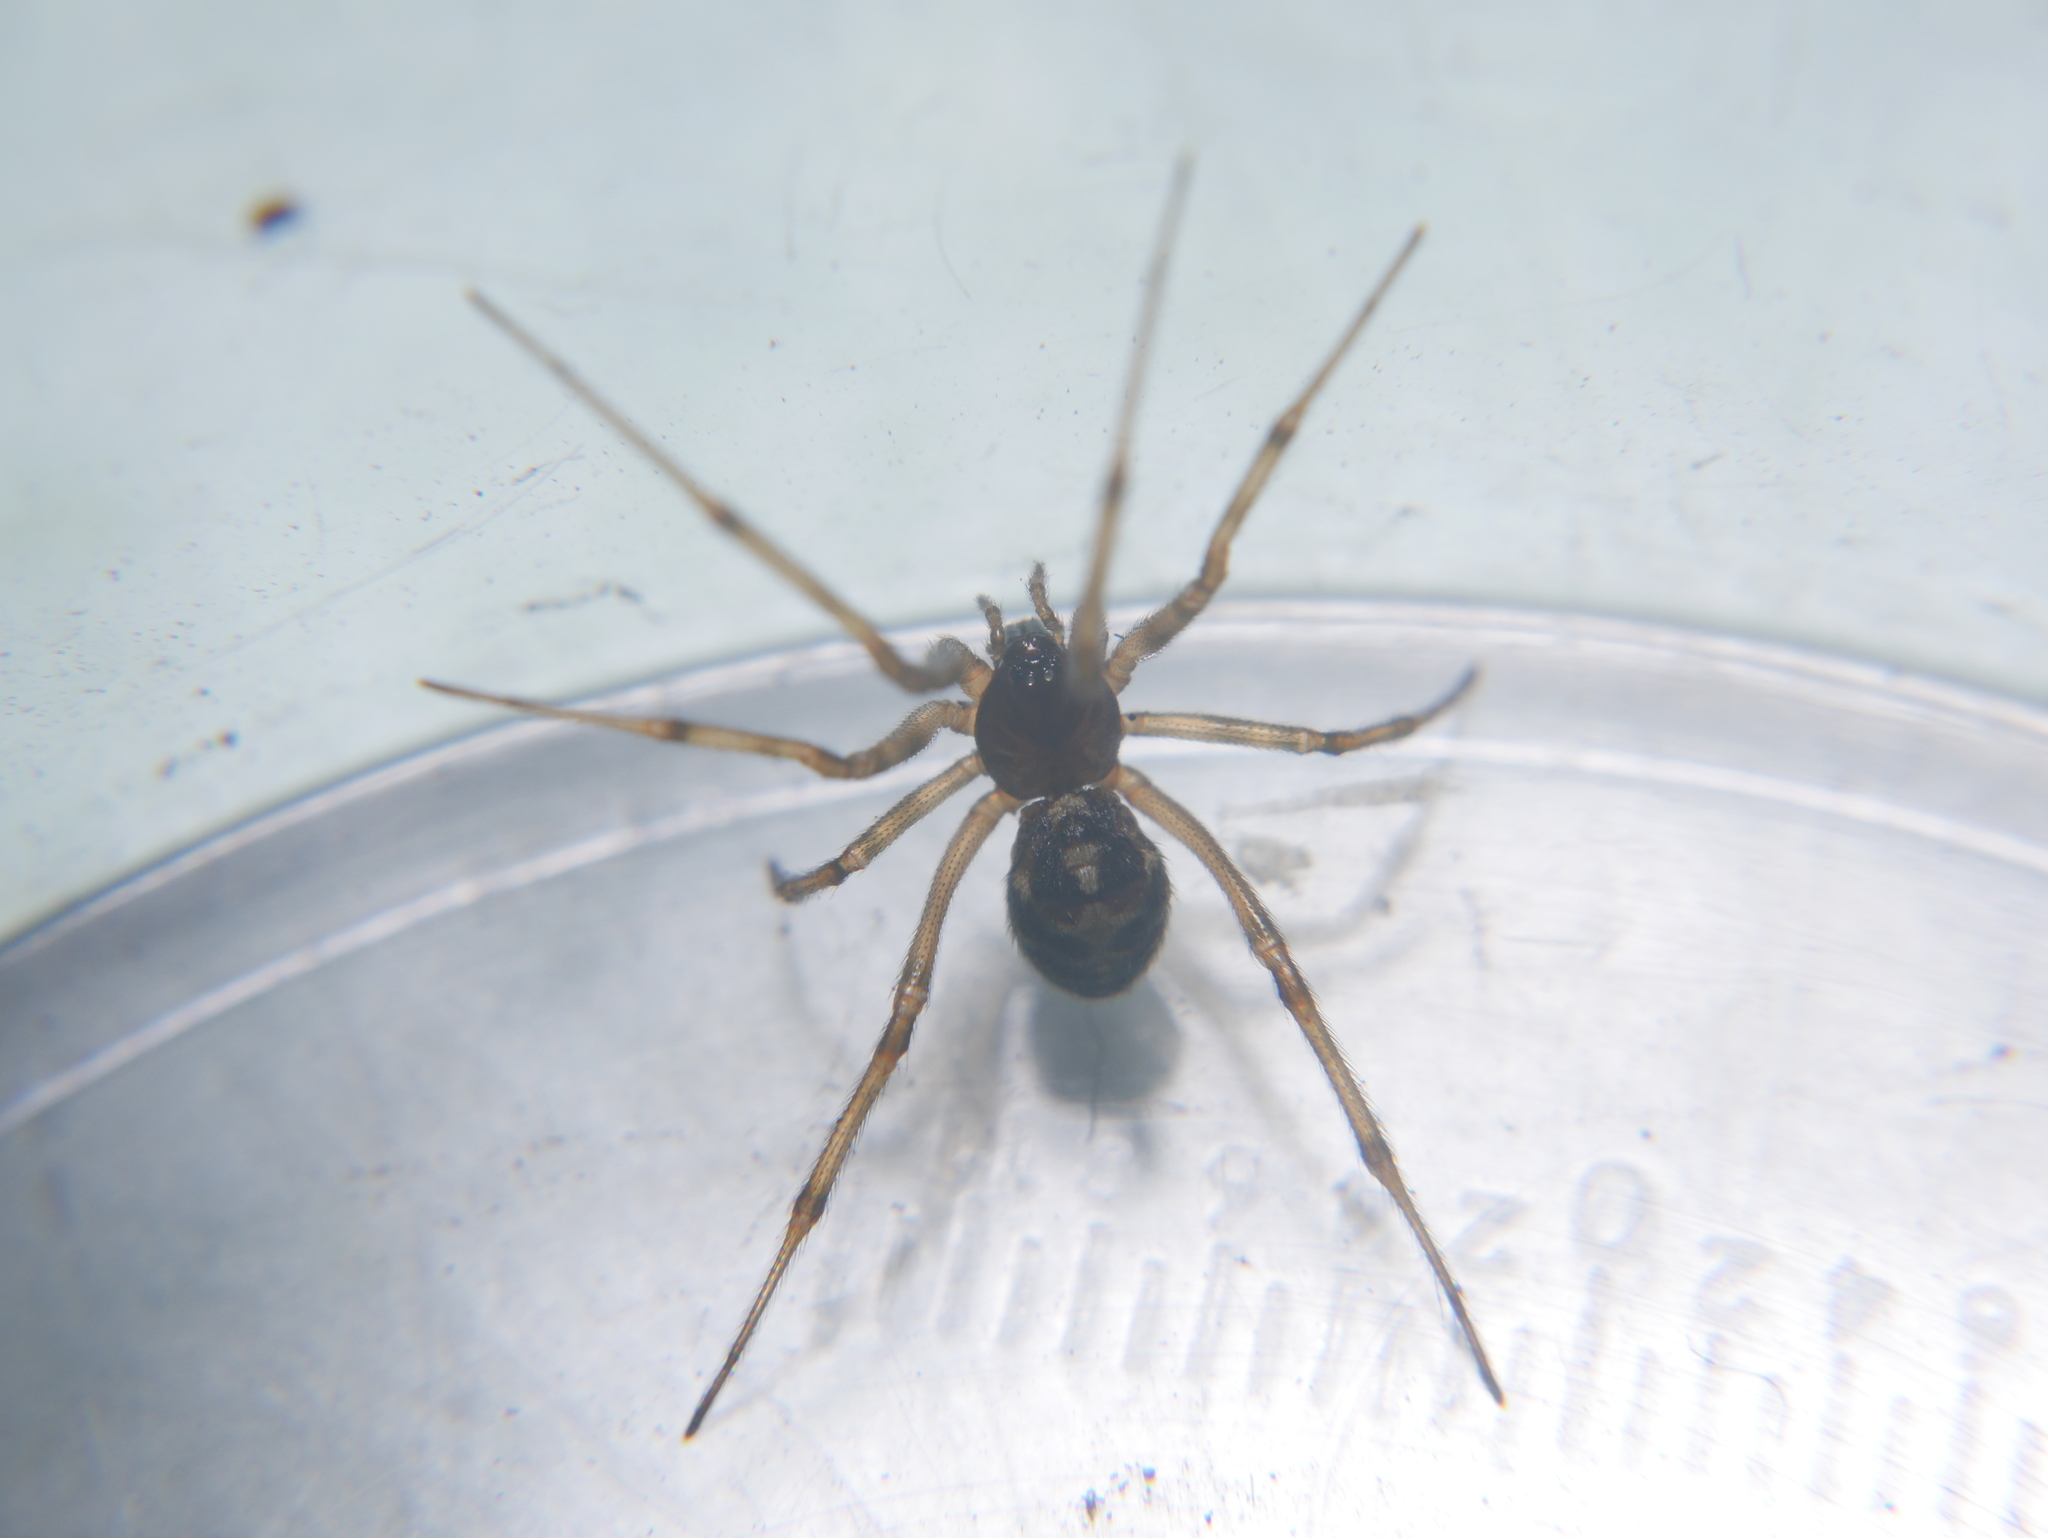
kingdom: Animalia
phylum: Arthropoda
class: Arachnida
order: Araneae
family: Theridiidae
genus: Steatoda
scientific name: Steatoda triangulosa
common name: Triangulate bud spider
